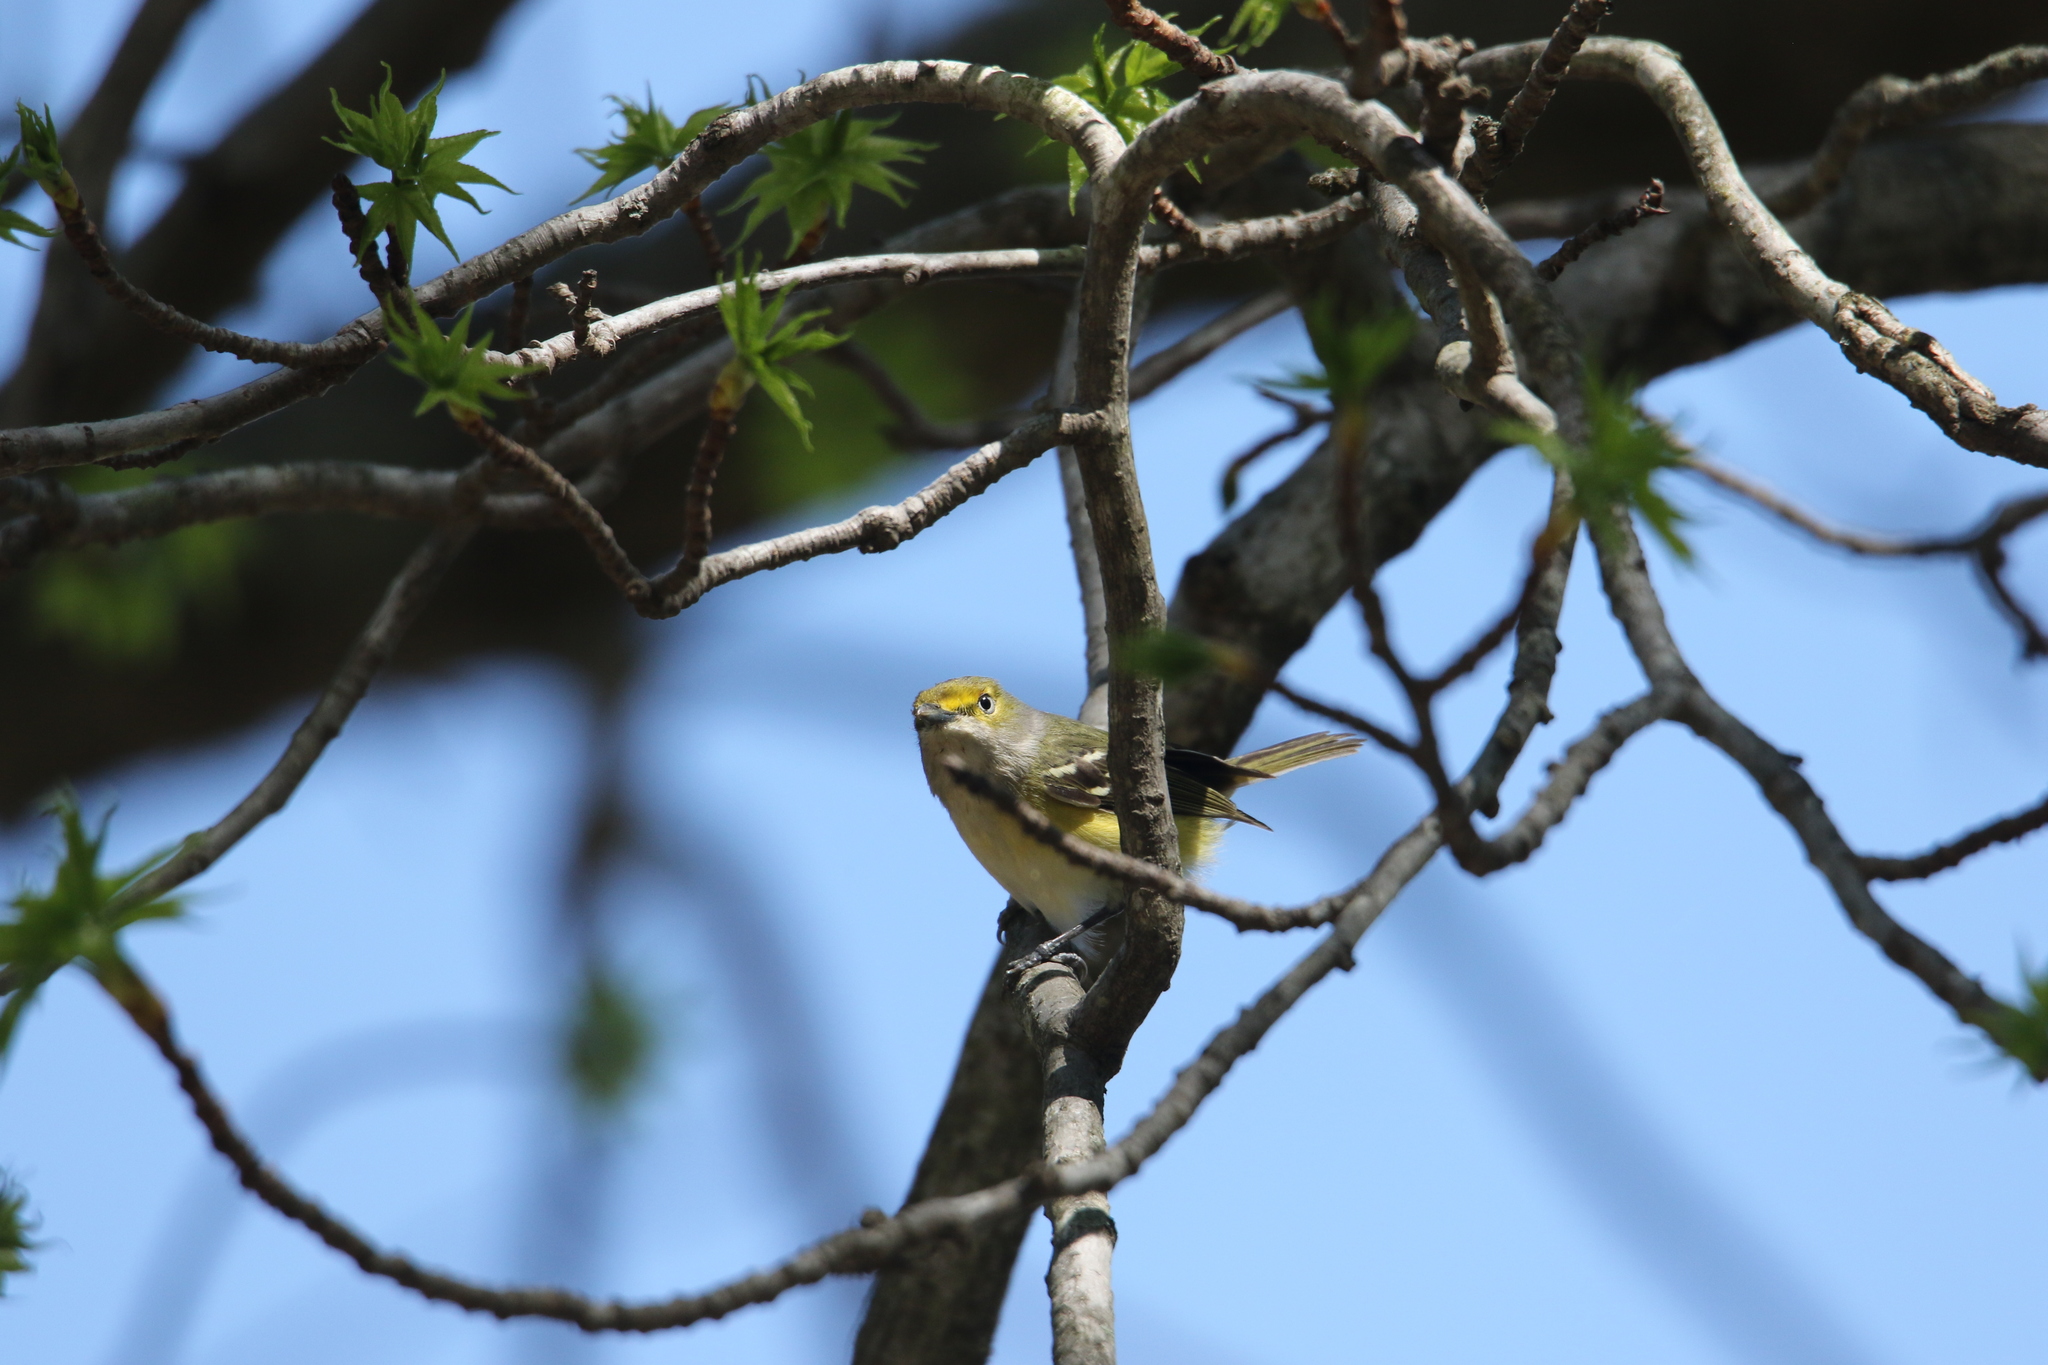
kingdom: Animalia
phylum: Chordata
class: Aves
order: Passeriformes
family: Vireonidae
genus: Vireo
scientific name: Vireo griseus
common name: White-eyed vireo
